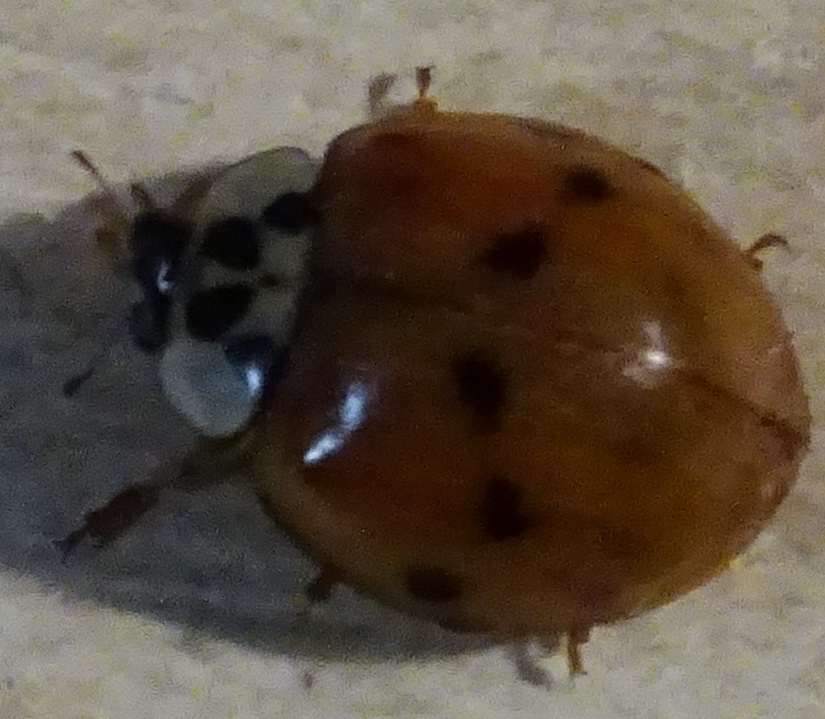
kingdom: Animalia
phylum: Arthropoda
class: Insecta
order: Coleoptera
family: Coccinellidae
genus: Harmonia
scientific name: Harmonia axyridis
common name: Harlequin ladybird
